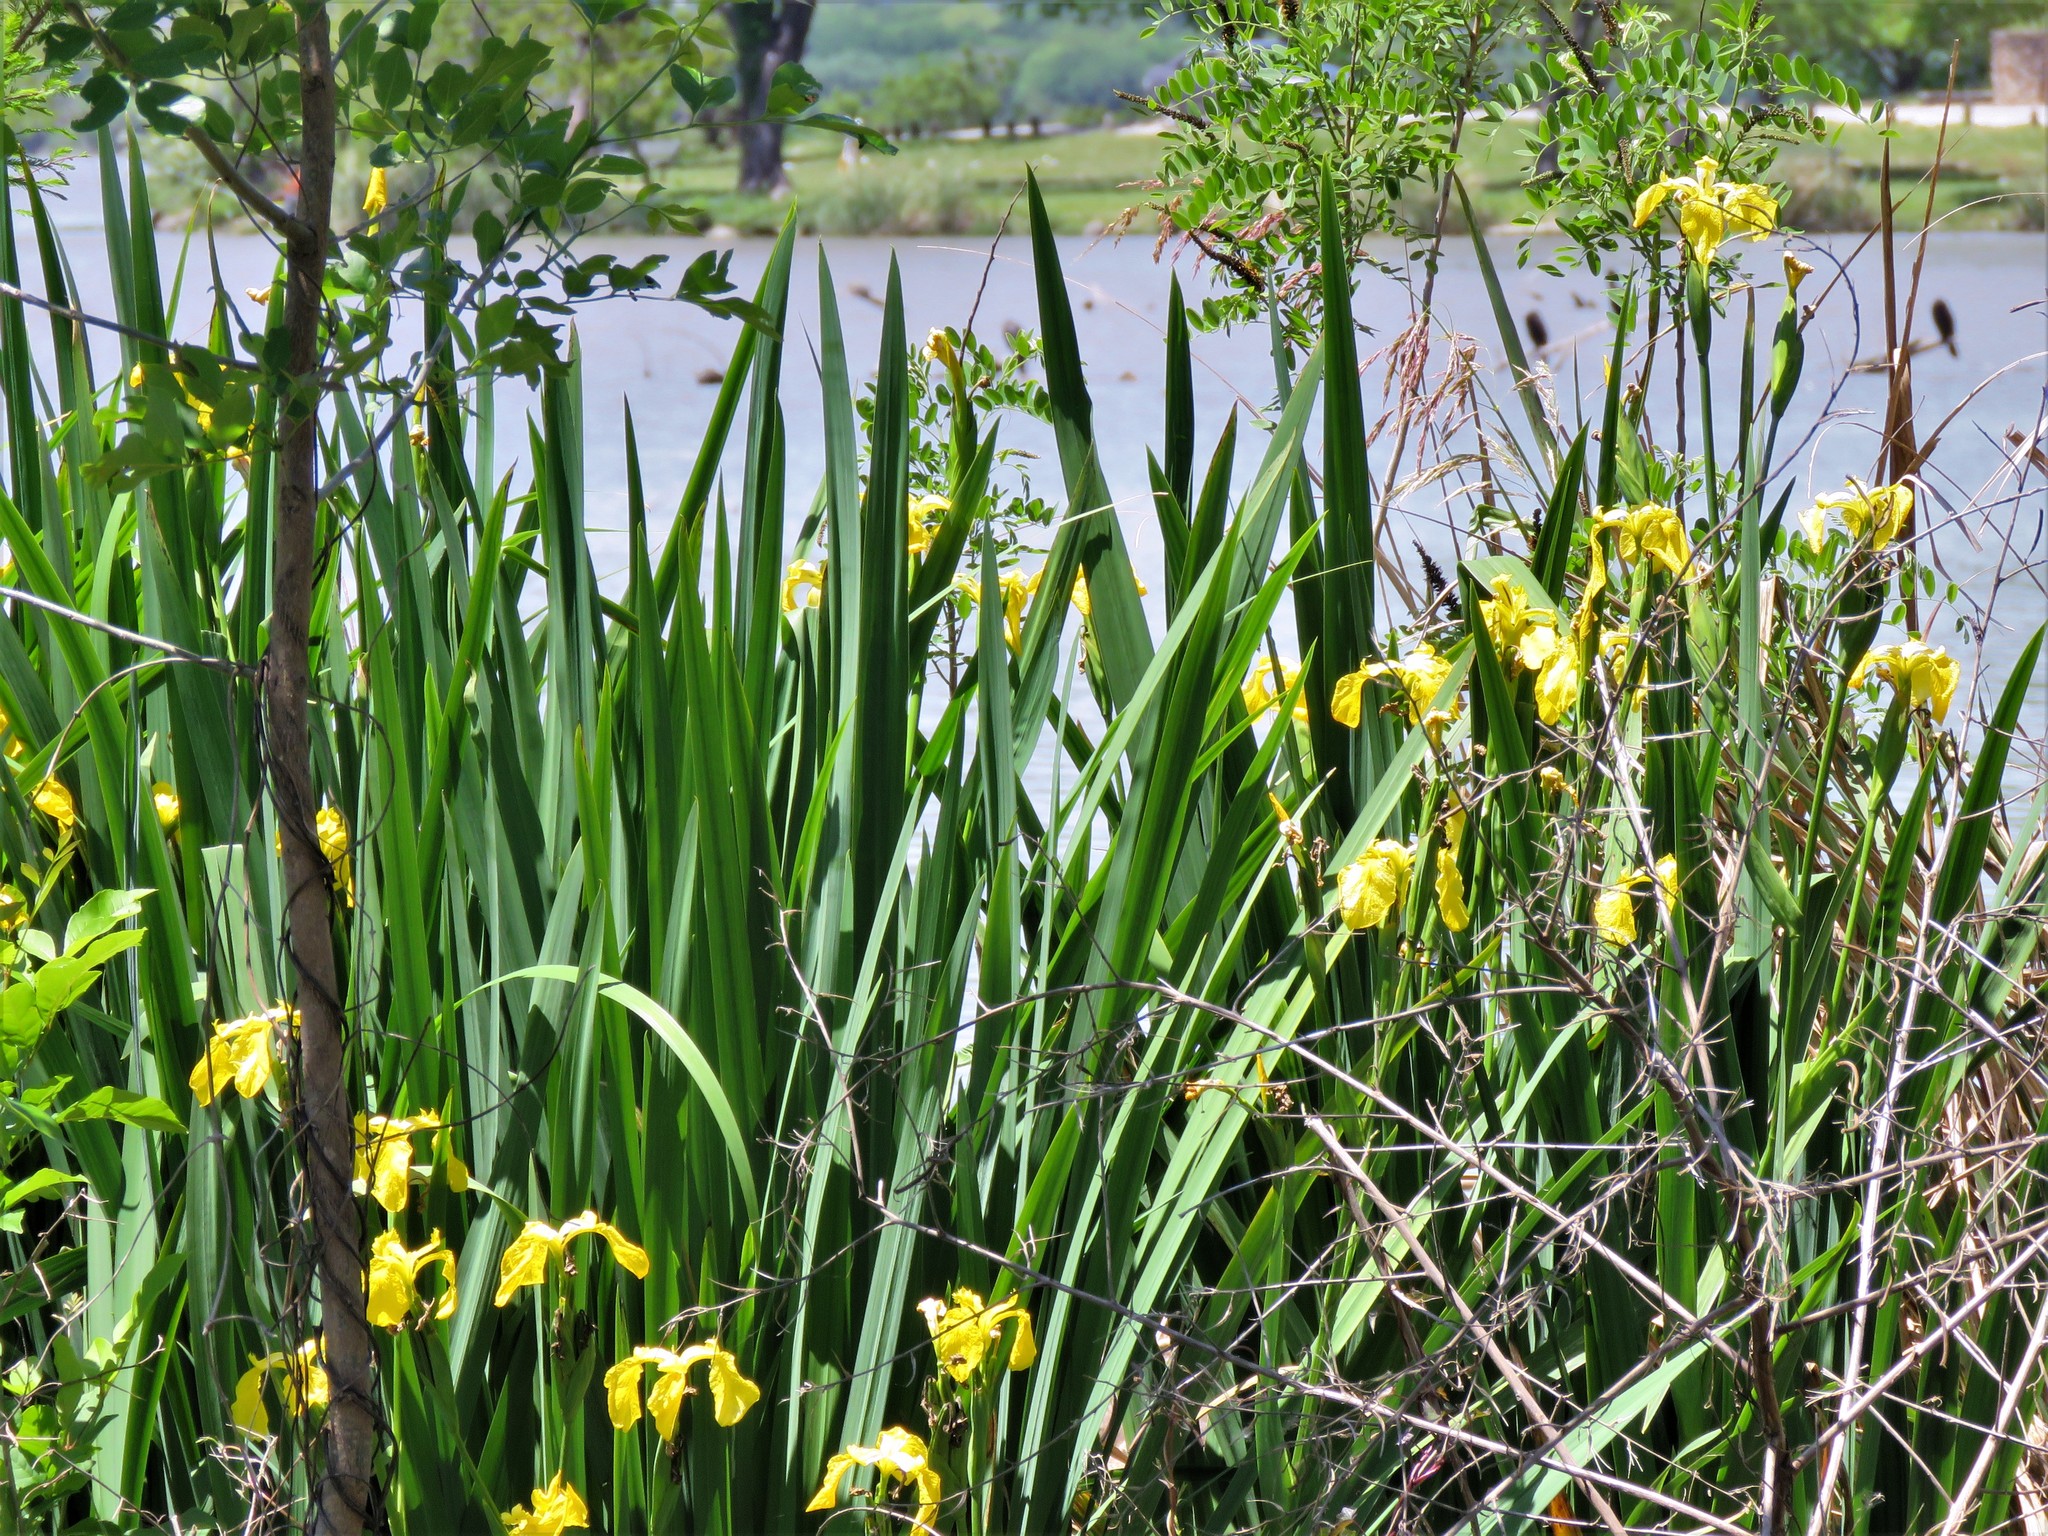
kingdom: Plantae
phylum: Tracheophyta
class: Liliopsida
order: Asparagales
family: Iridaceae
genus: Iris
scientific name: Iris pseudacorus
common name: Yellow flag
